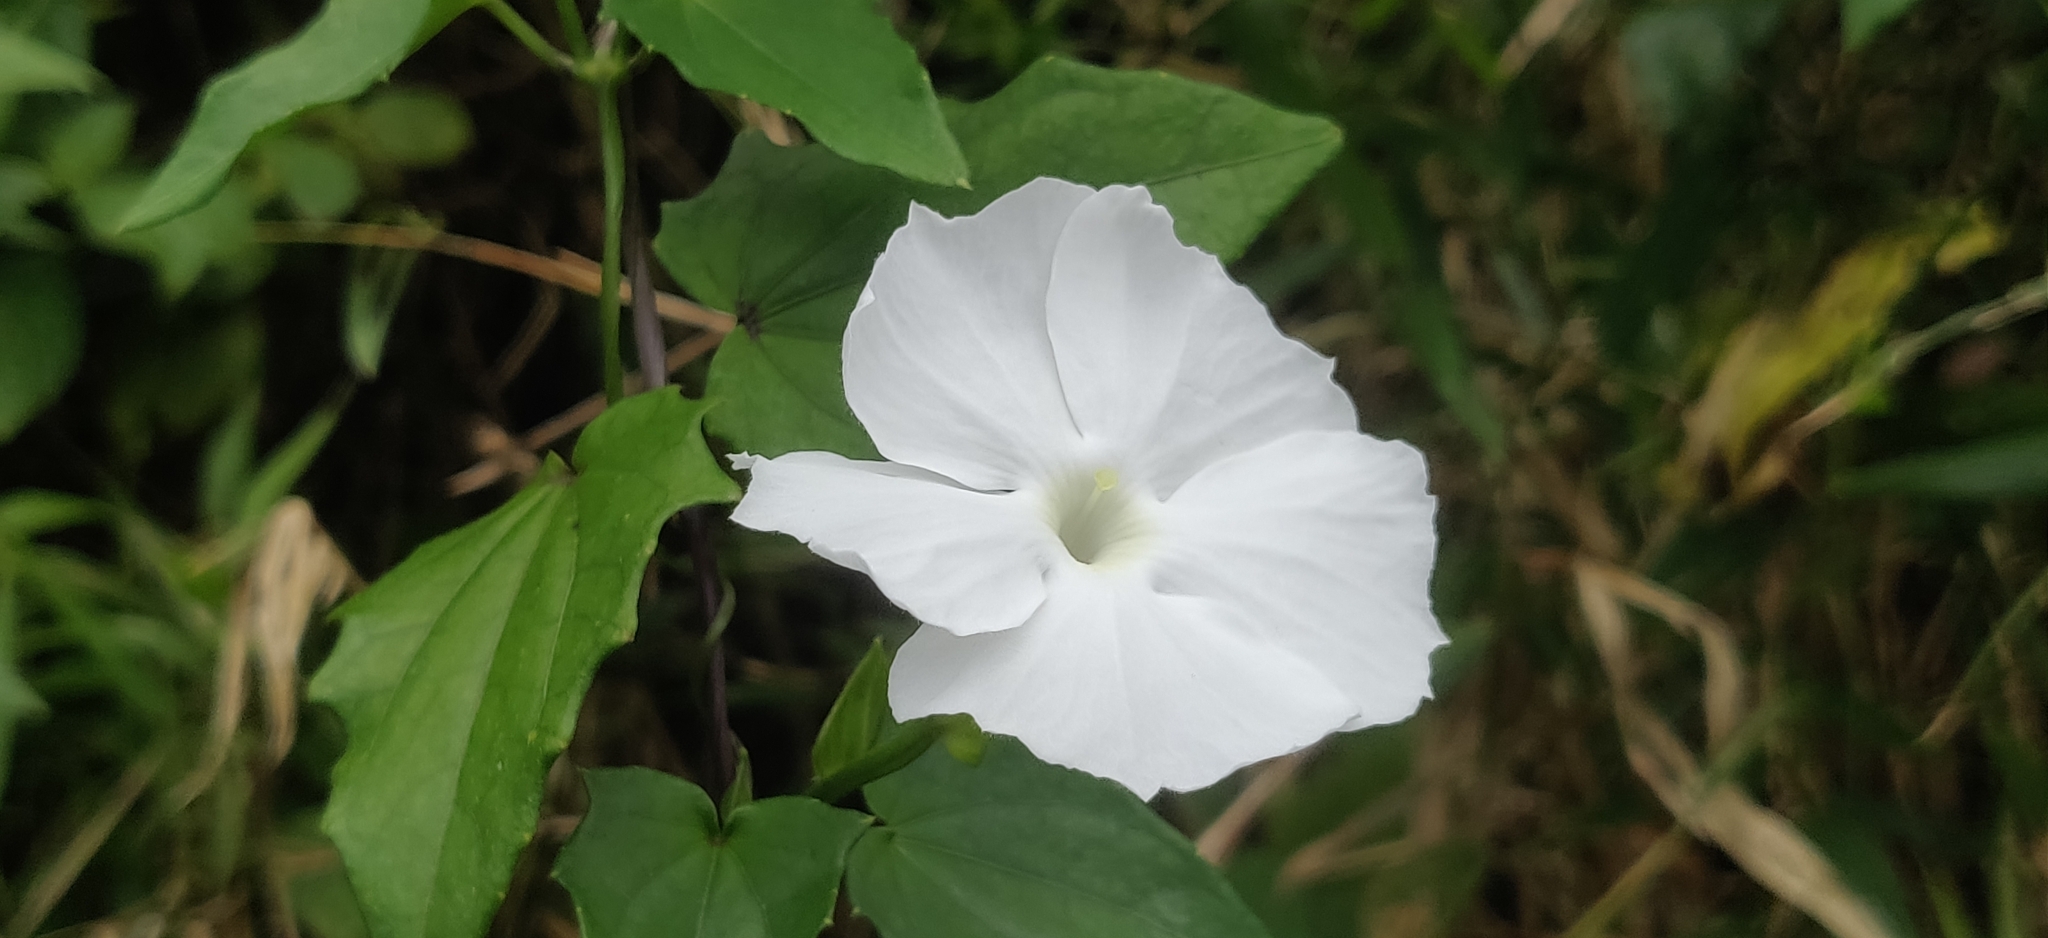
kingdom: Plantae
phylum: Tracheophyta
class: Magnoliopsida
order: Lamiales
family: Acanthaceae
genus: Thunbergia
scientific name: Thunbergia fragrans
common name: Whitelady
